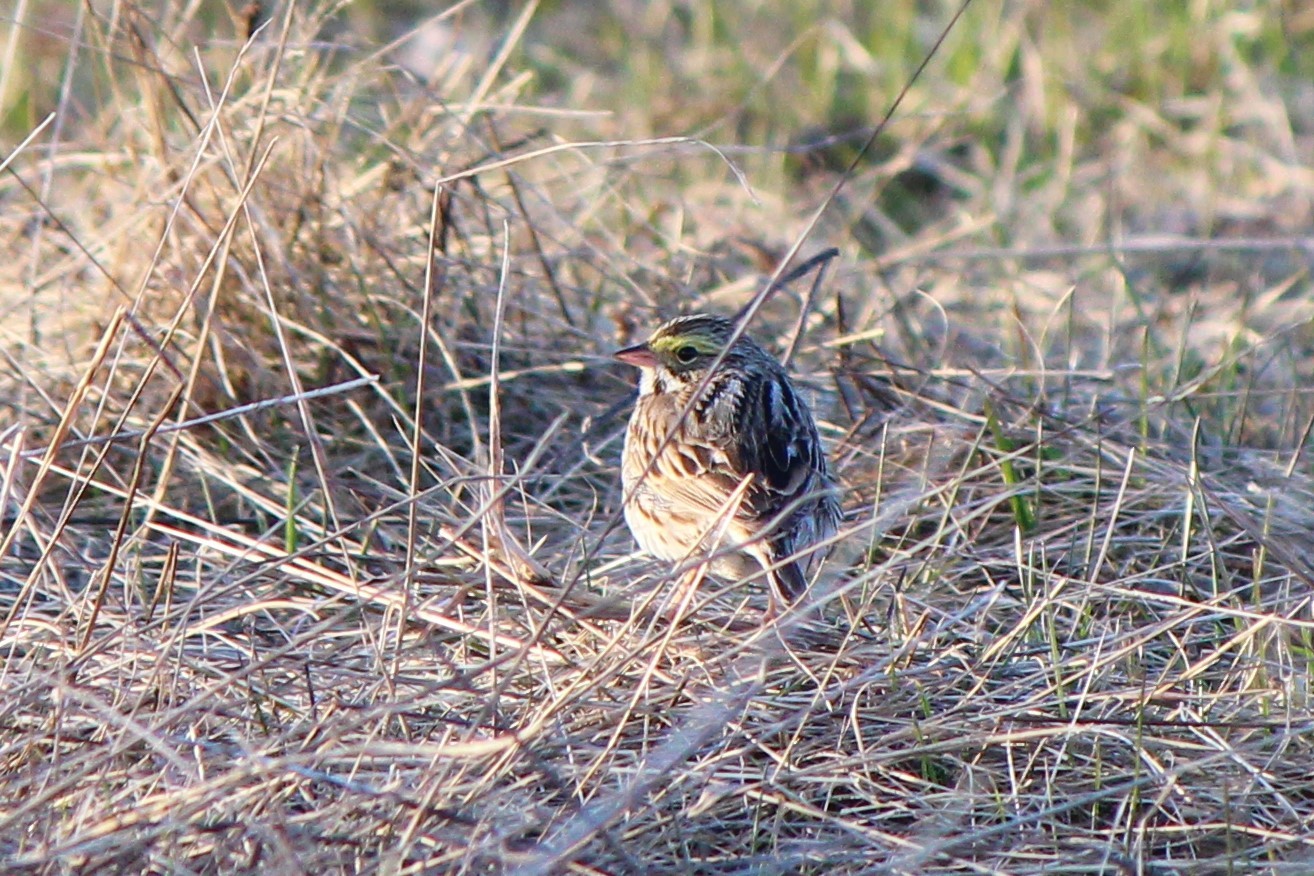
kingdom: Animalia
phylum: Chordata
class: Aves
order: Passeriformes
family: Passerellidae
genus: Passerculus
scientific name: Passerculus sandwichensis
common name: Savannah sparrow
